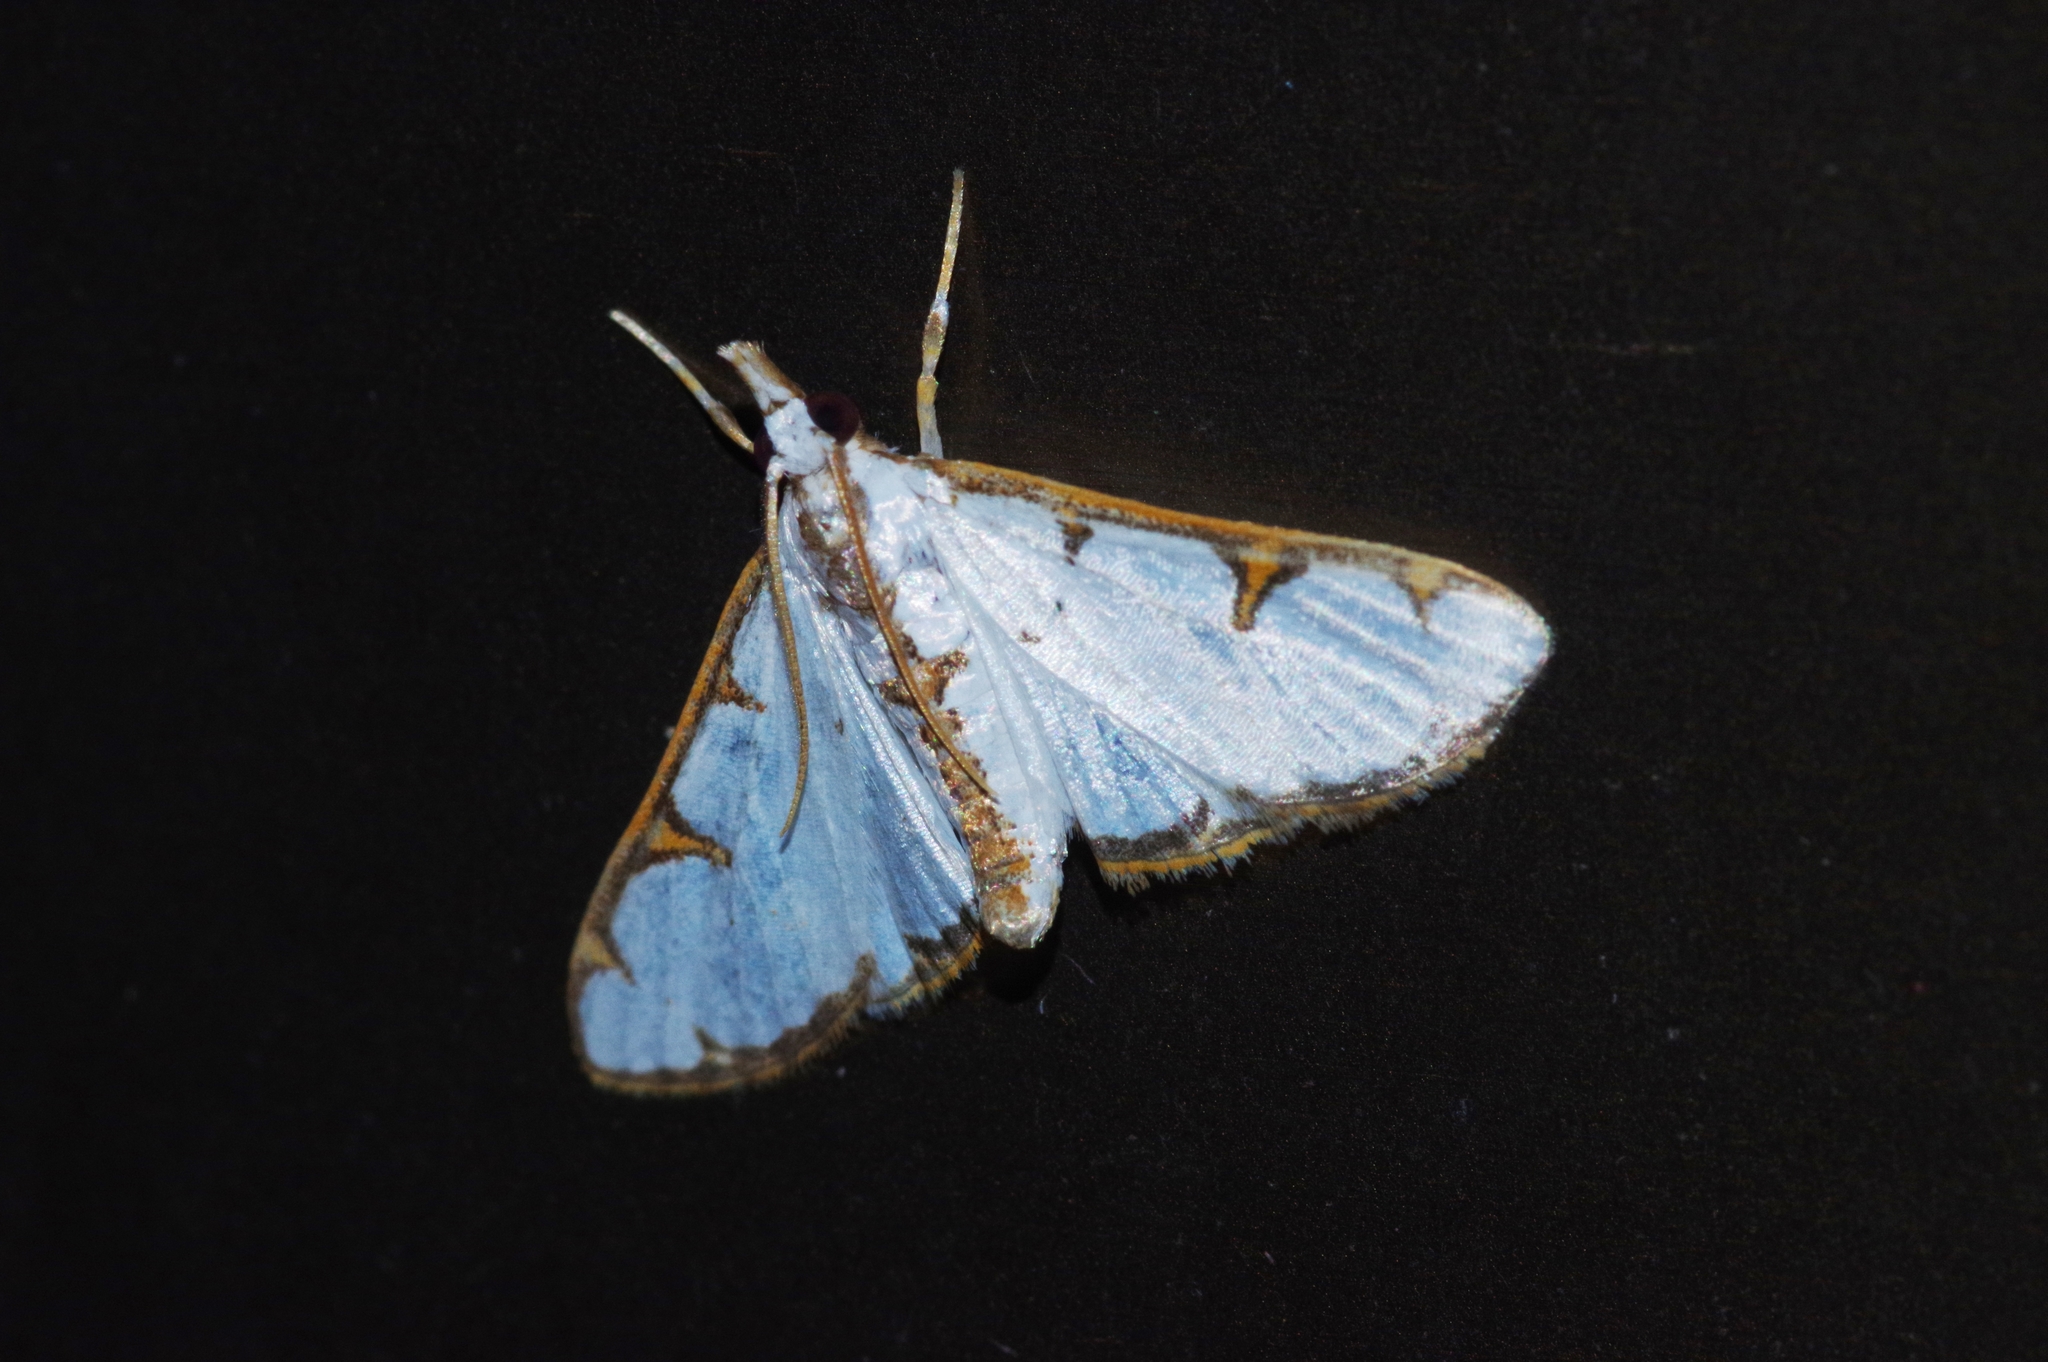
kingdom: Animalia
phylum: Arthropoda
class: Insecta
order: Lepidoptera
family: Crambidae
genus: Cirrhochrista
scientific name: Cirrhochrista brizoalis
